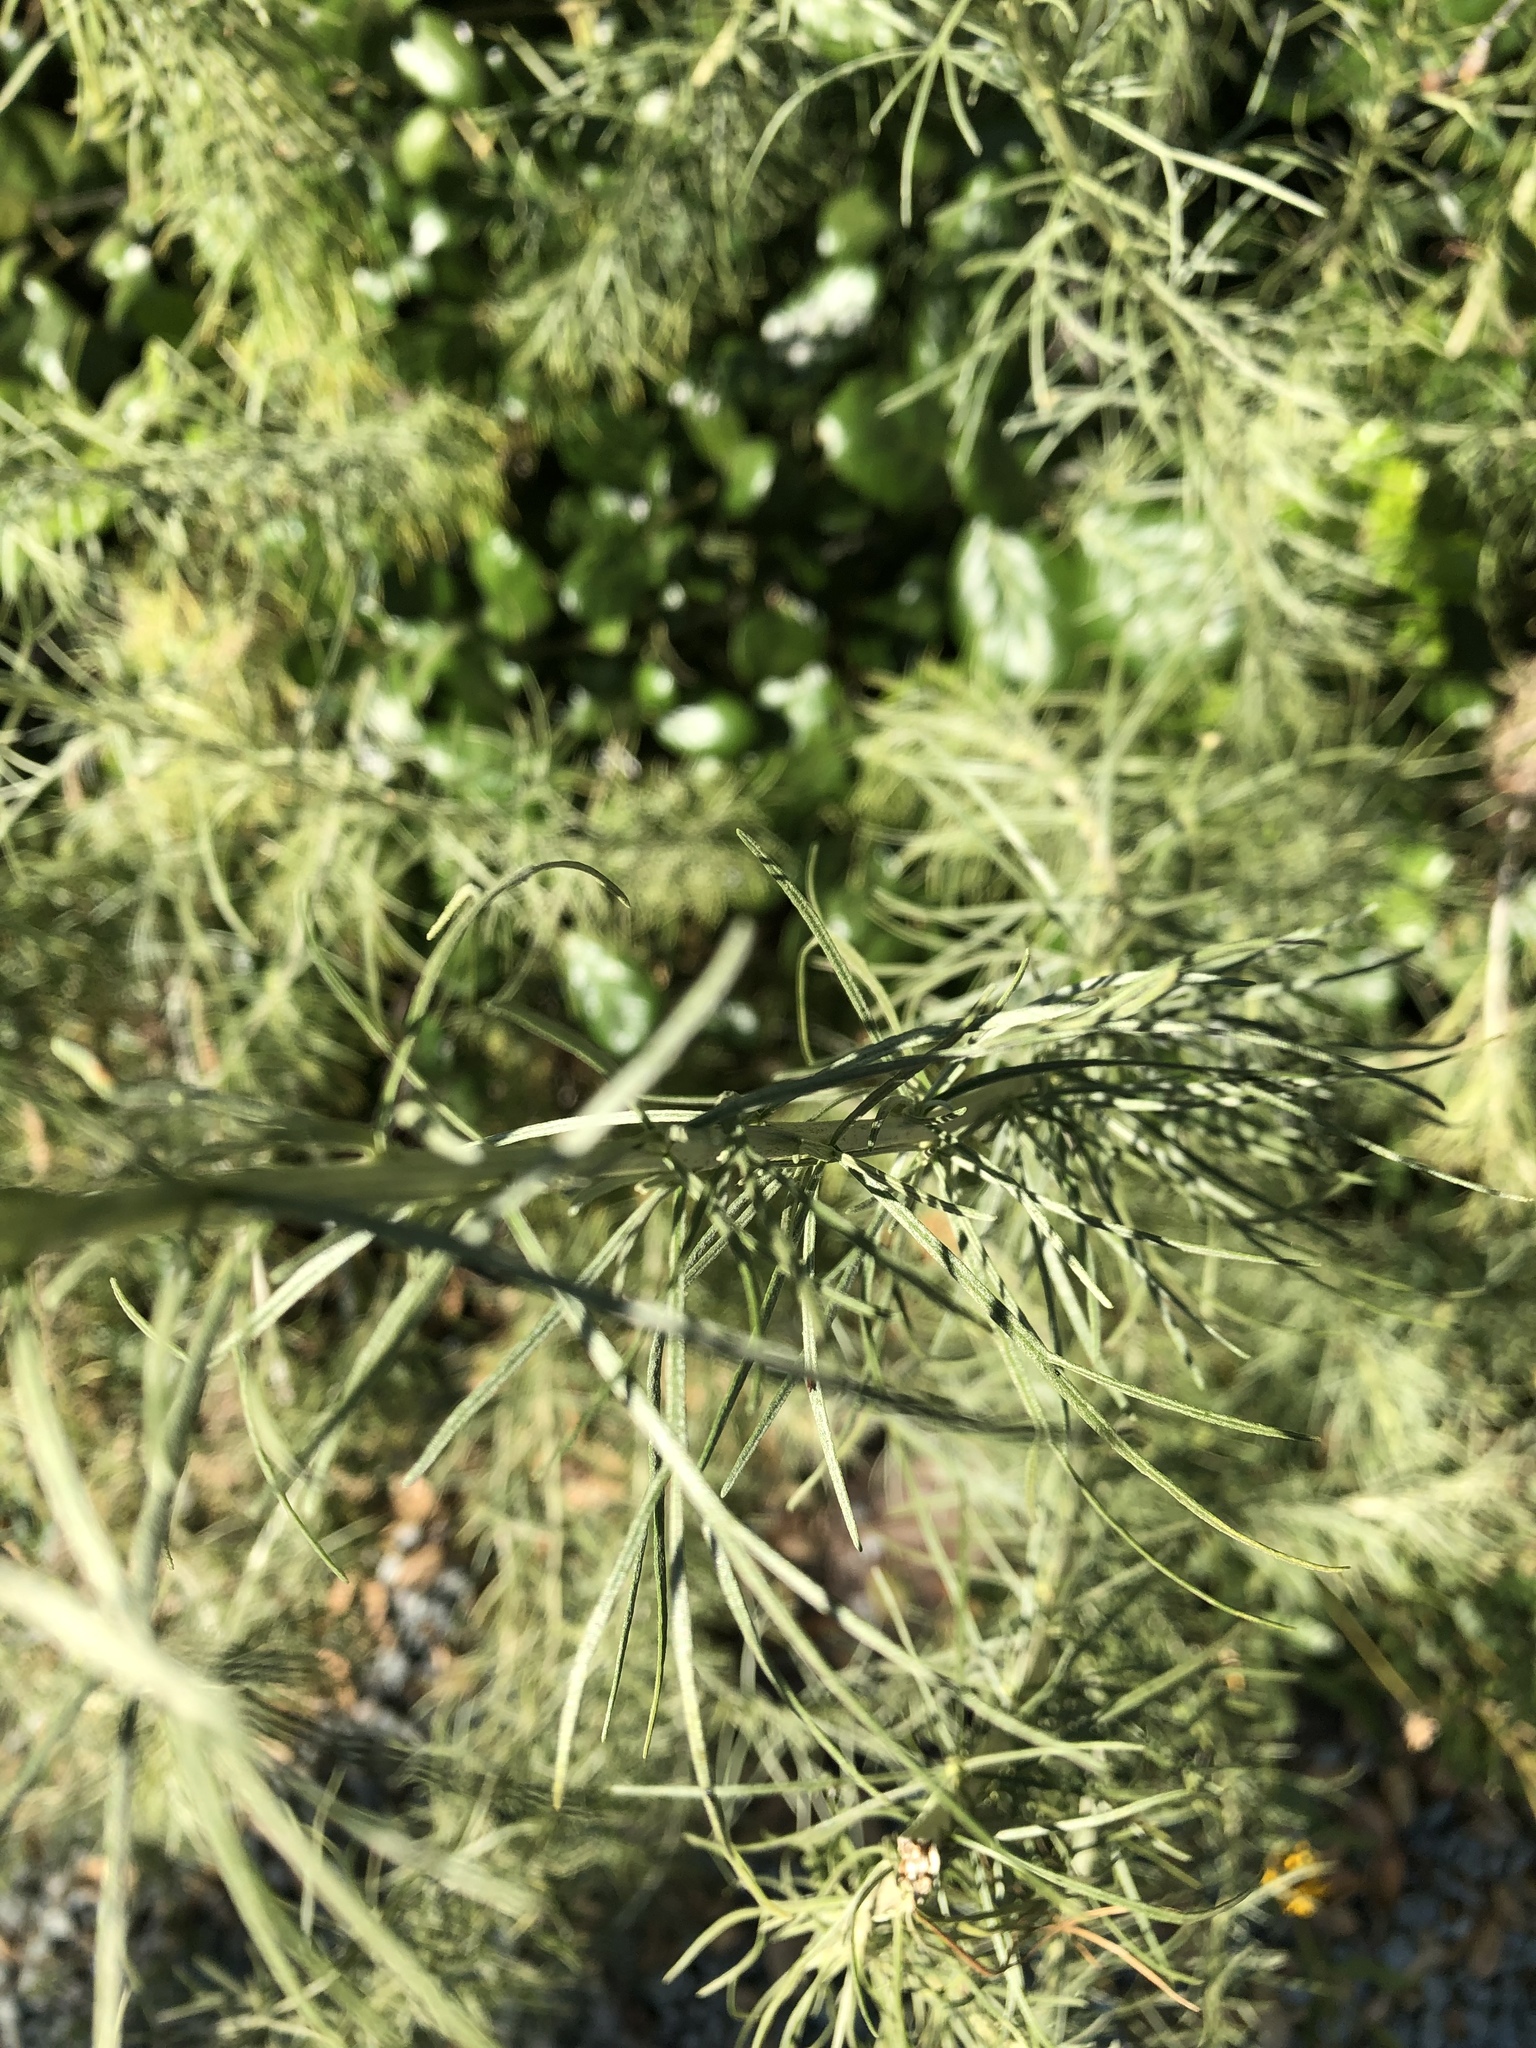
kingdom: Plantae
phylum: Tracheophyta
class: Magnoliopsida
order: Asterales
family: Asteraceae
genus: Artemisia
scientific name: Artemisia californica
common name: California sagebrush
